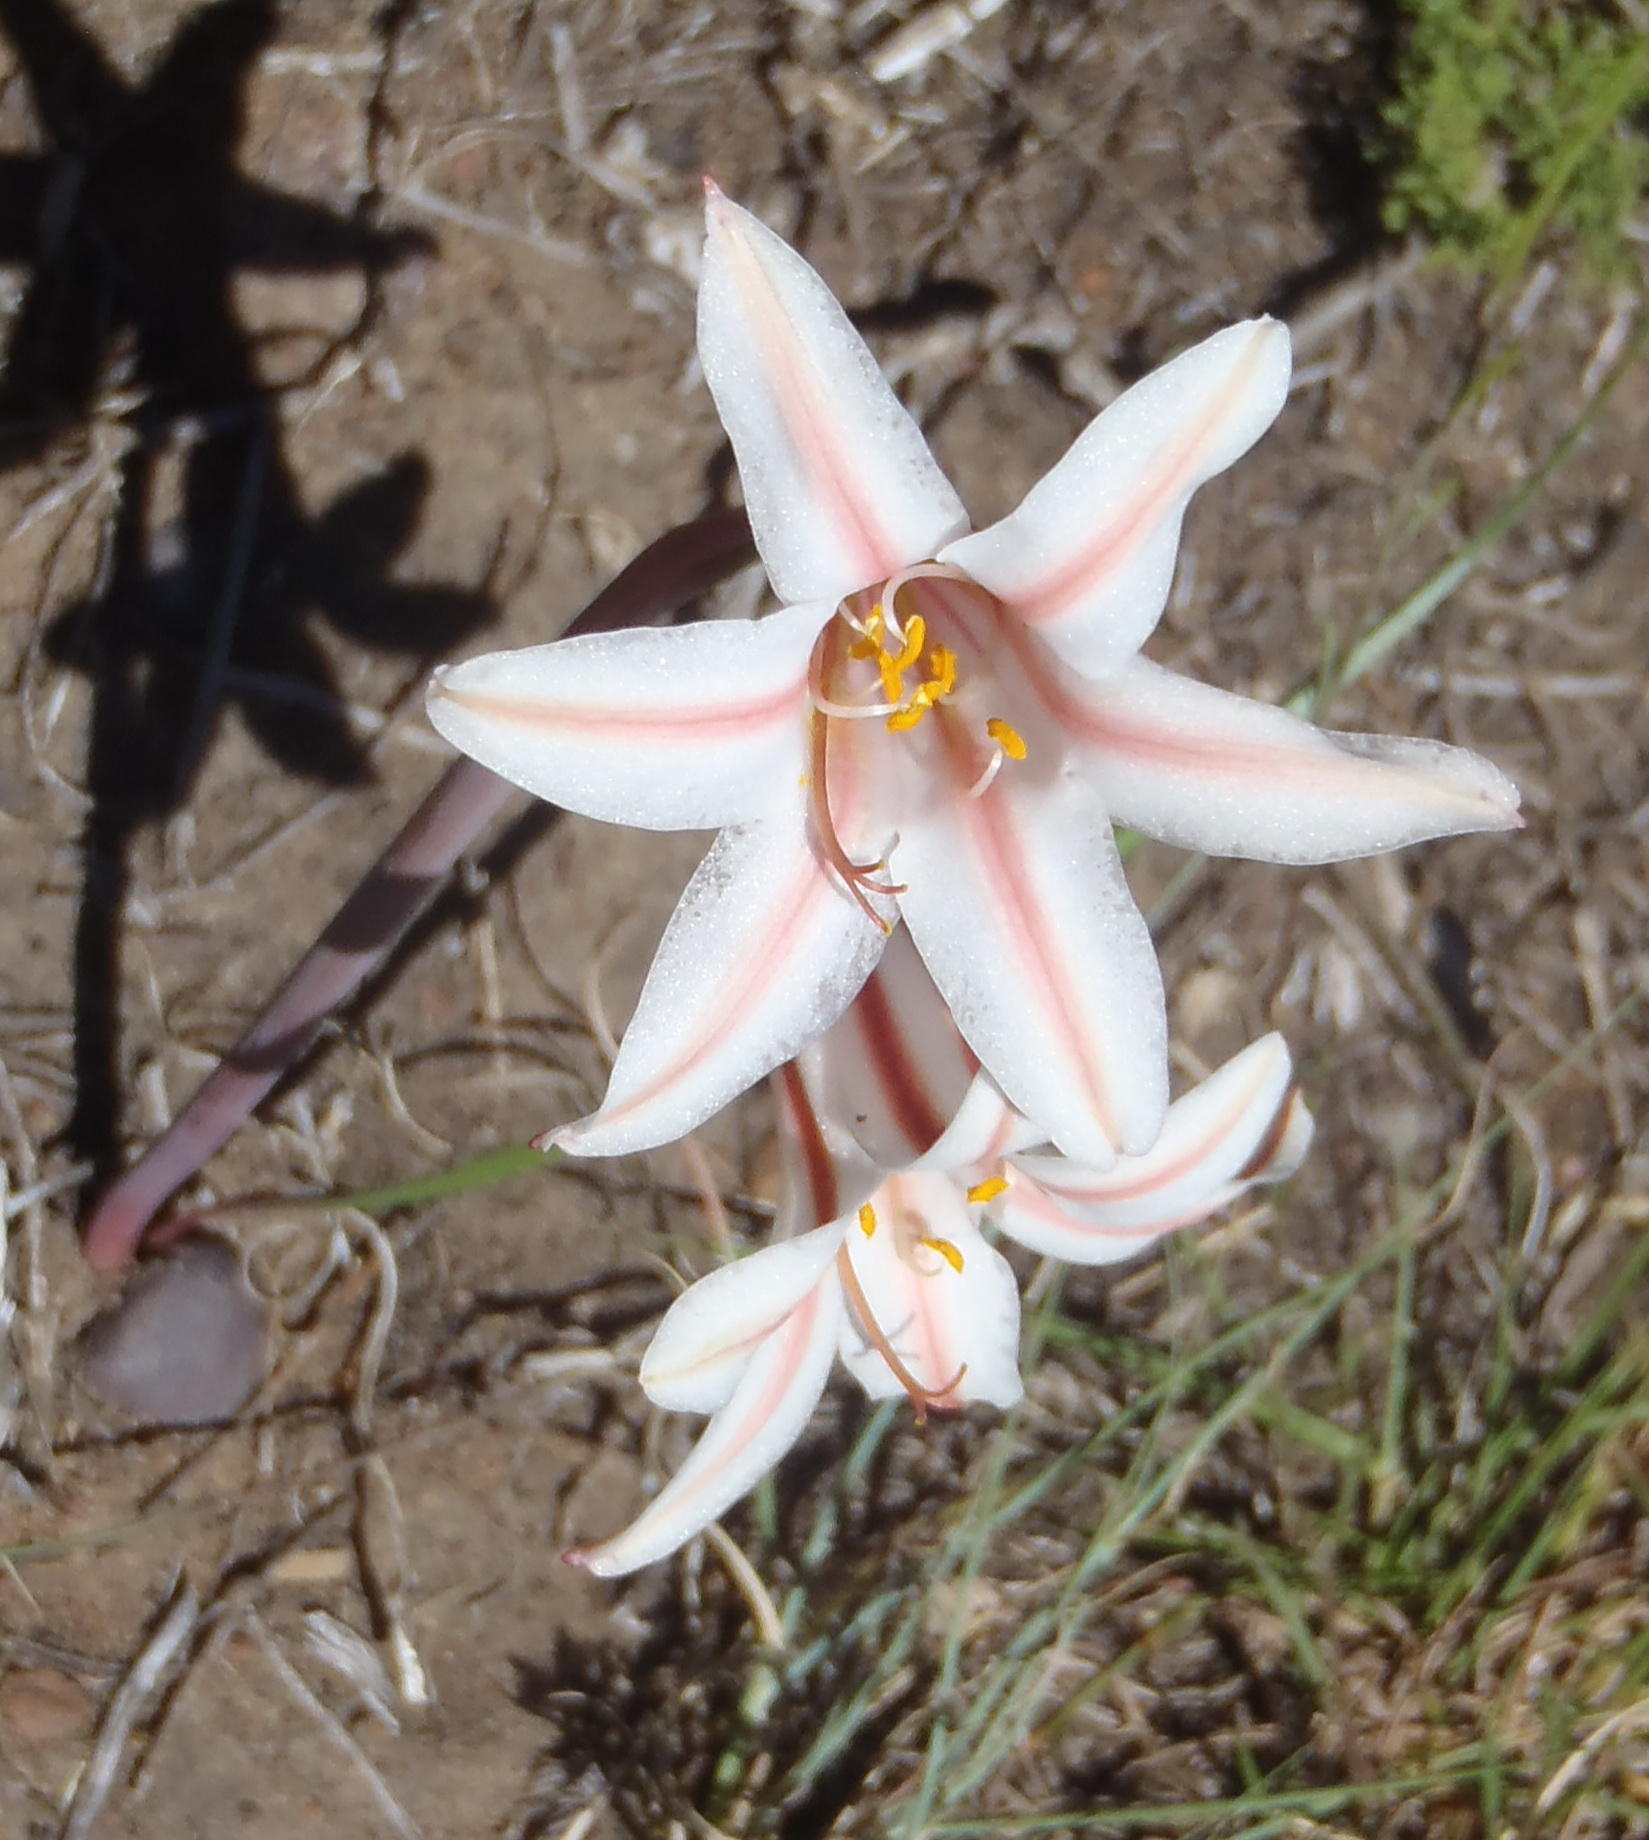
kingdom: Plantae
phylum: Tracheophyta
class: Liliopsida
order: Asparagales
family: Amaryllidaceae
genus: Cyrtanthus
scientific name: Cyrtanthus smithiae
